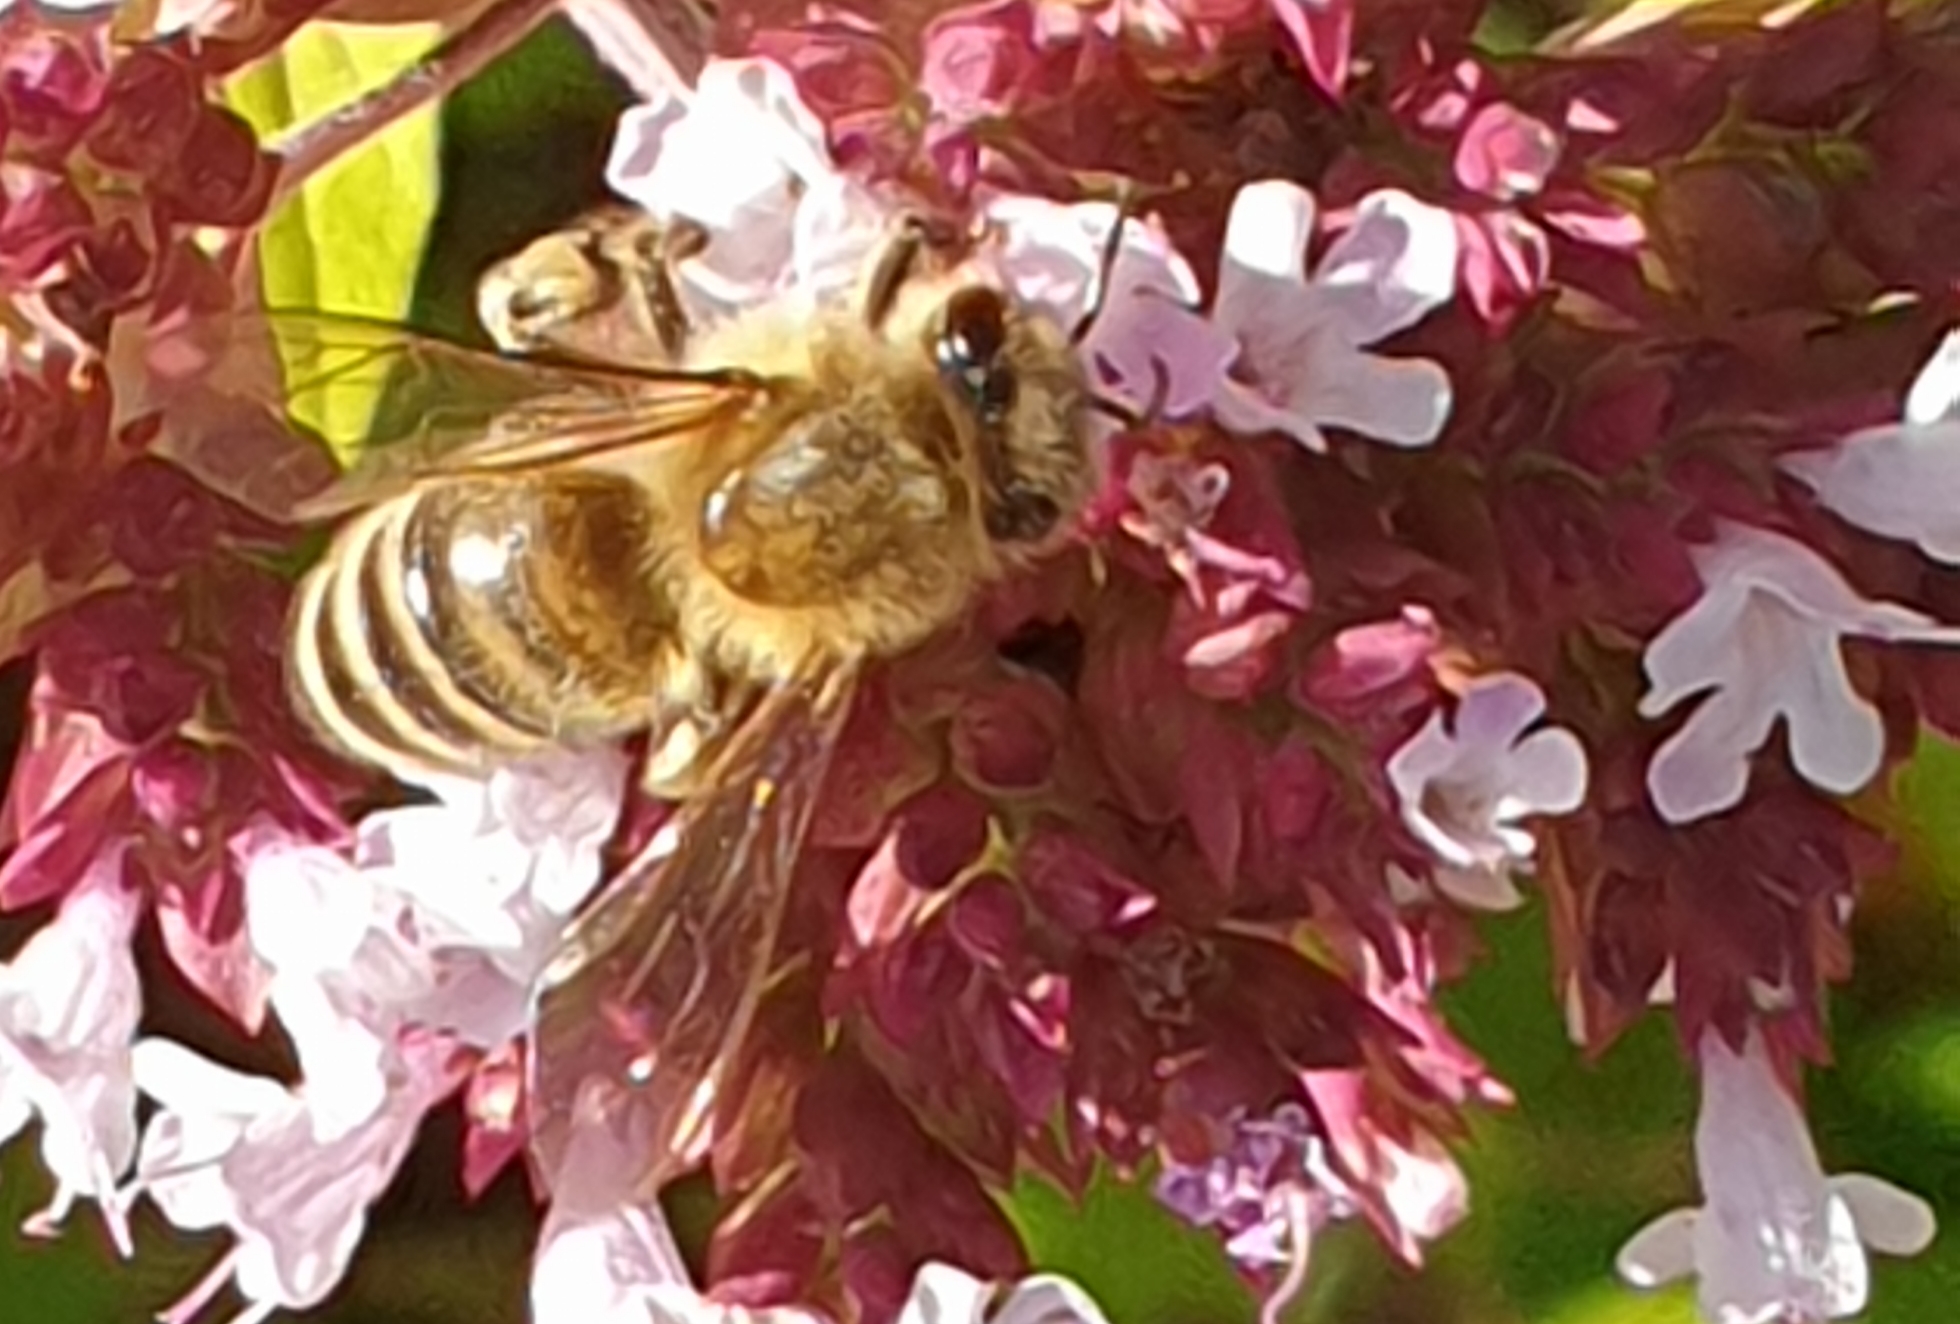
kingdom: Animalia
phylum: Arthropoda
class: Insecta
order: Hymenoptera
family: Apidae
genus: Apis
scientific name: Apis mellifera
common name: Honey bee
